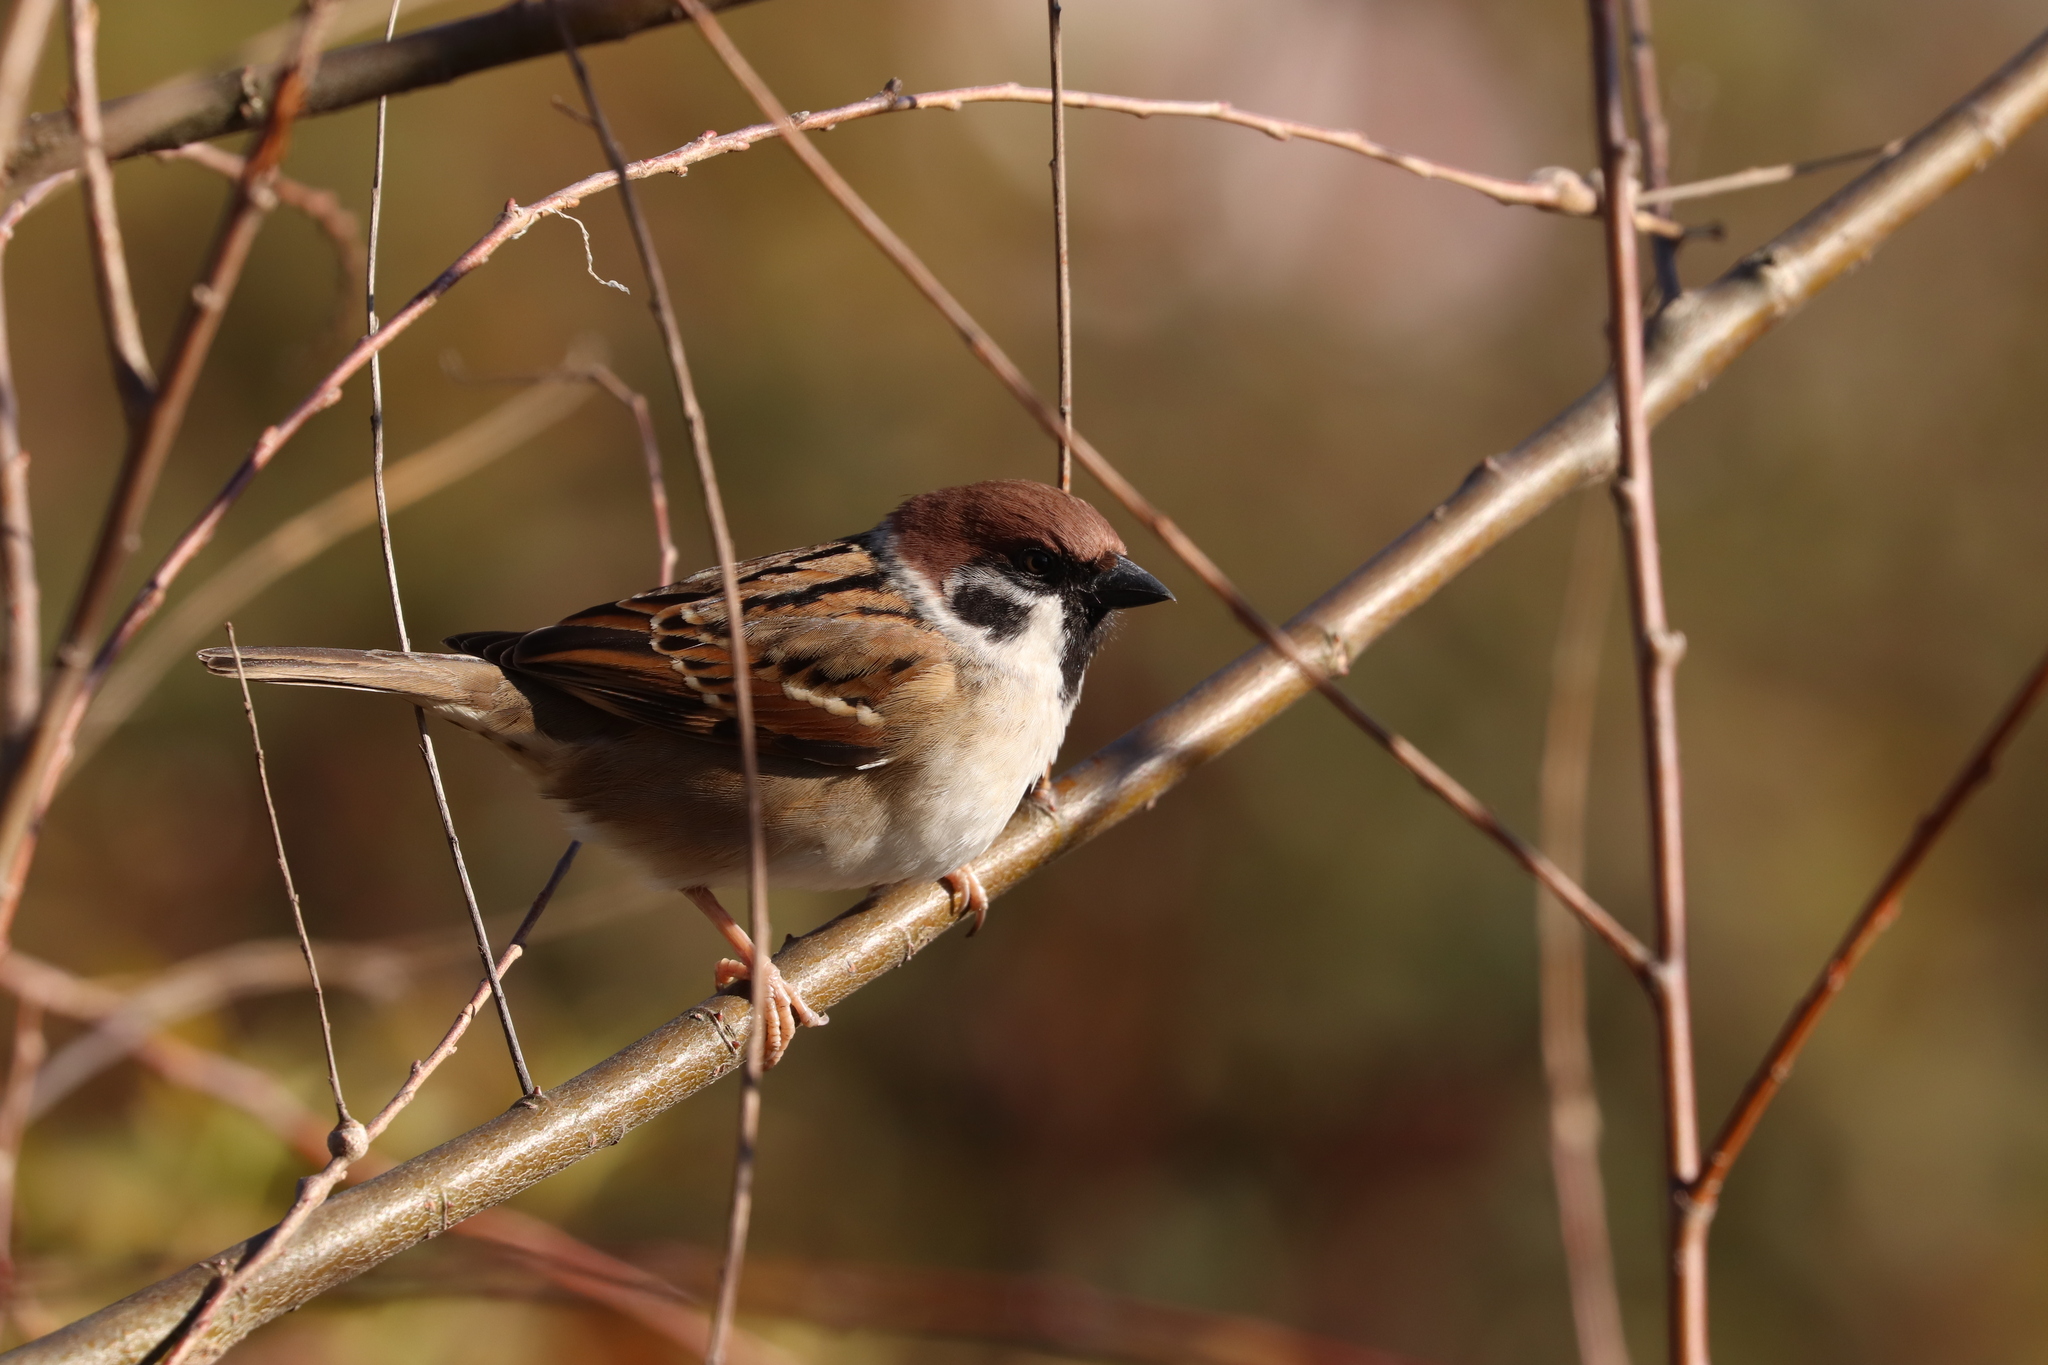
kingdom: Animalia
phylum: Chordata
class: Aves
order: Passeriformes
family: Passeridae
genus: Passer
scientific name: Passer montanus
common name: Eurasian tree sparrow
